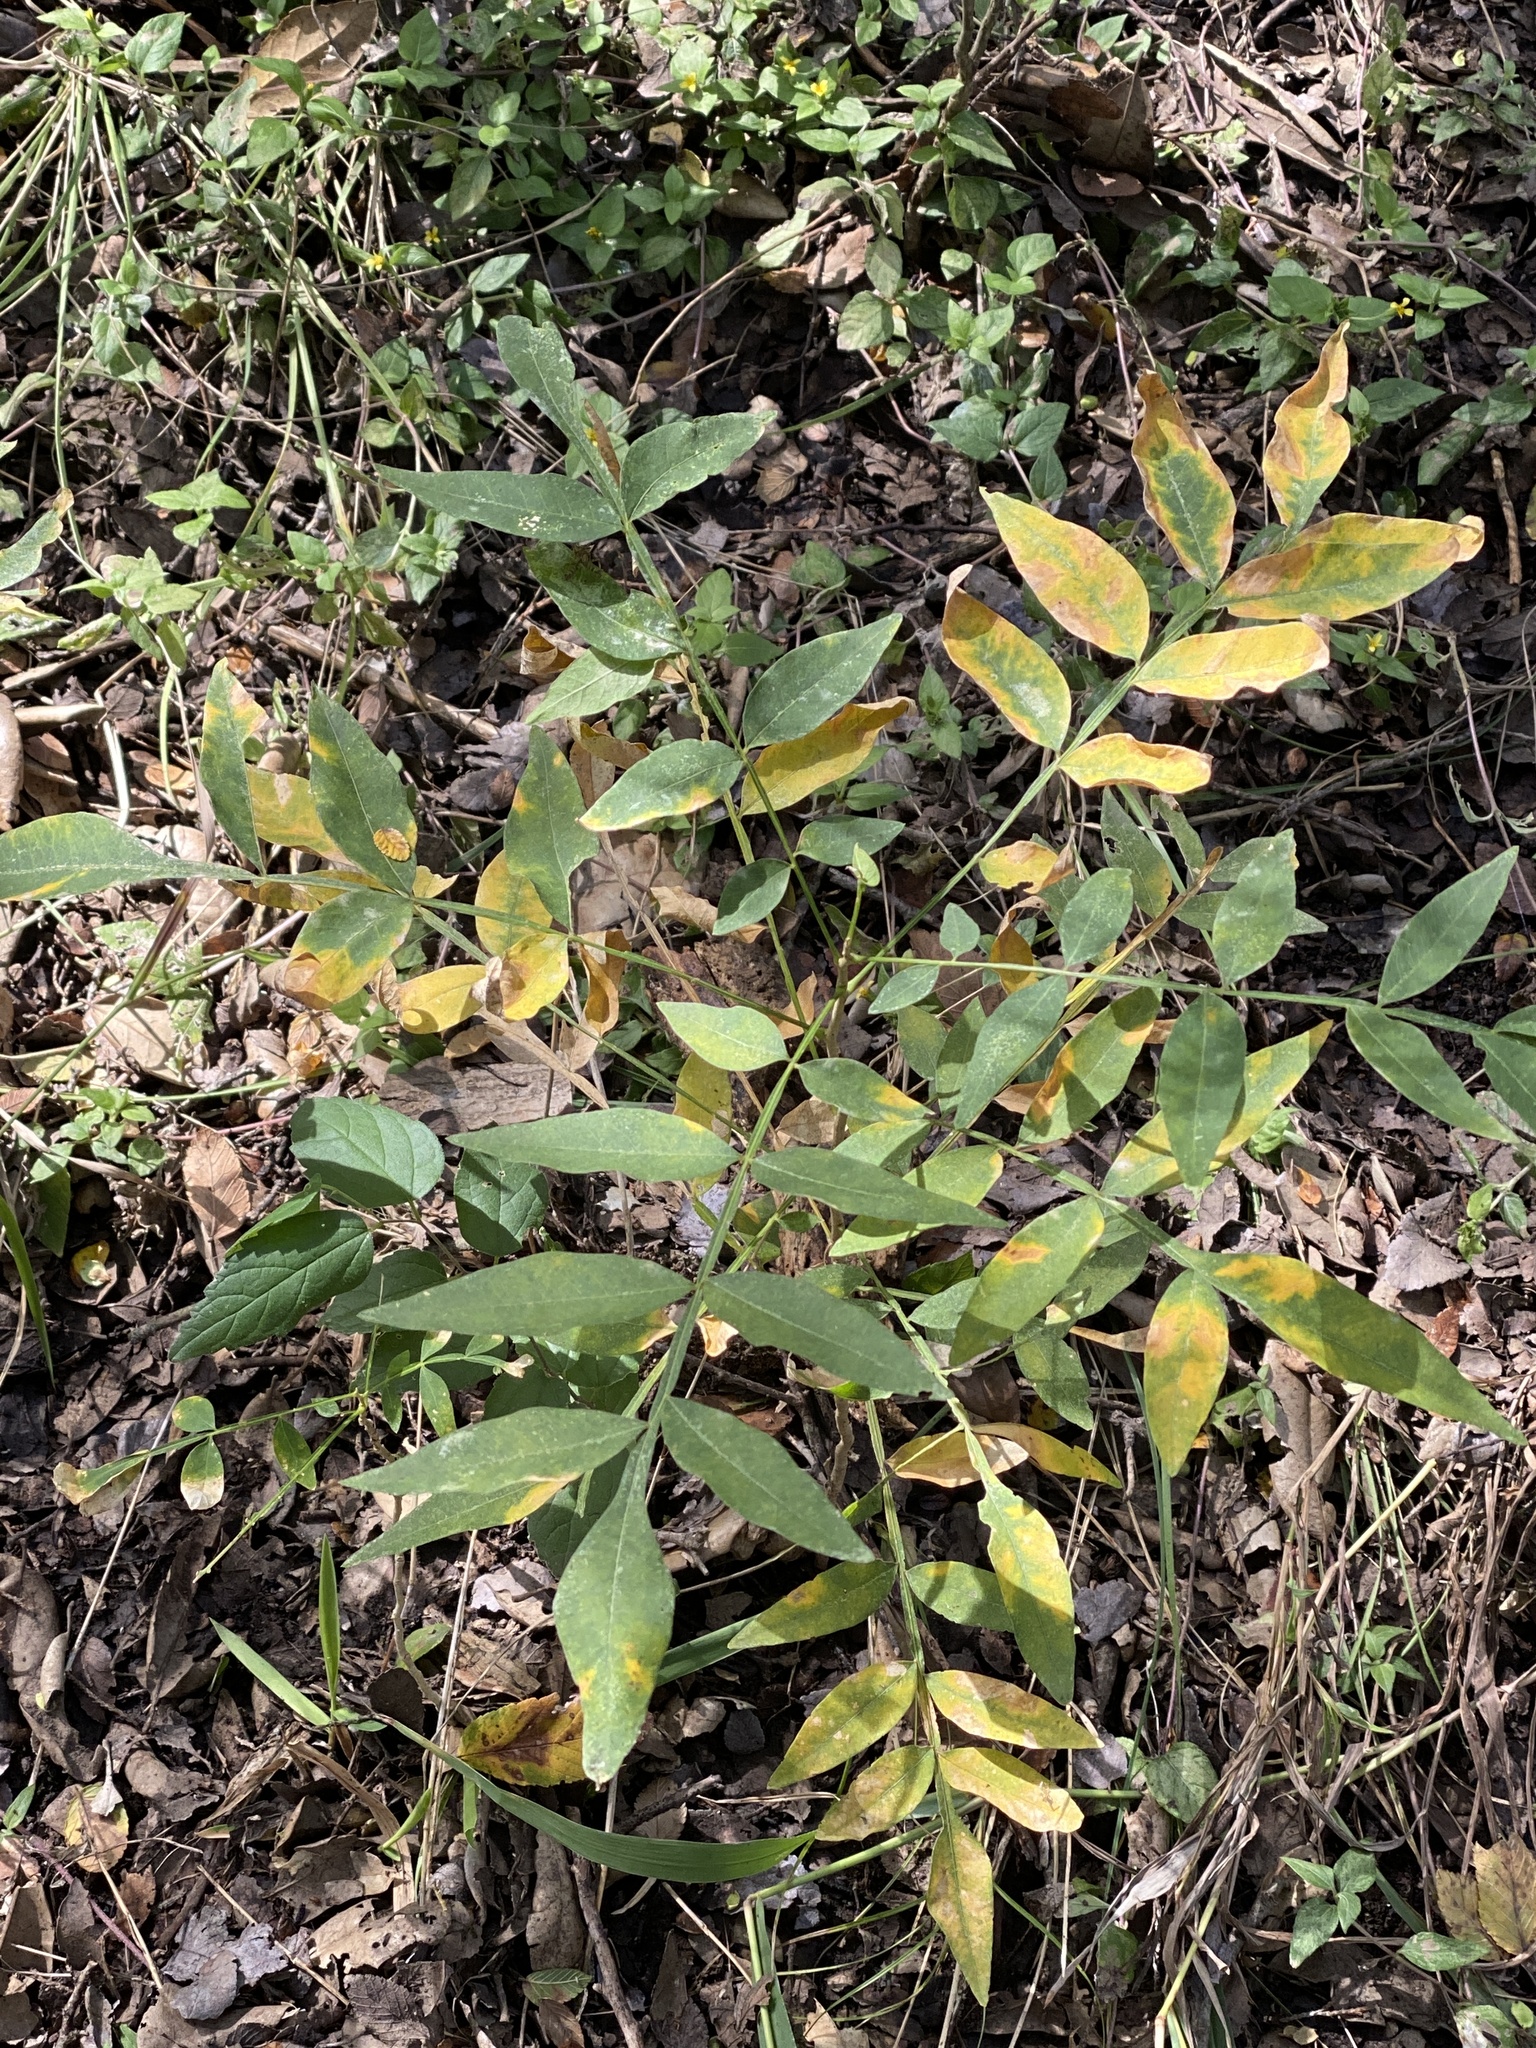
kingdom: Plantae
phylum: Tracheophyta
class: Magnoliopsida
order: Sapindales
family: Sapindaceae
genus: Sapindus
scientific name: Sapindus drummondii
